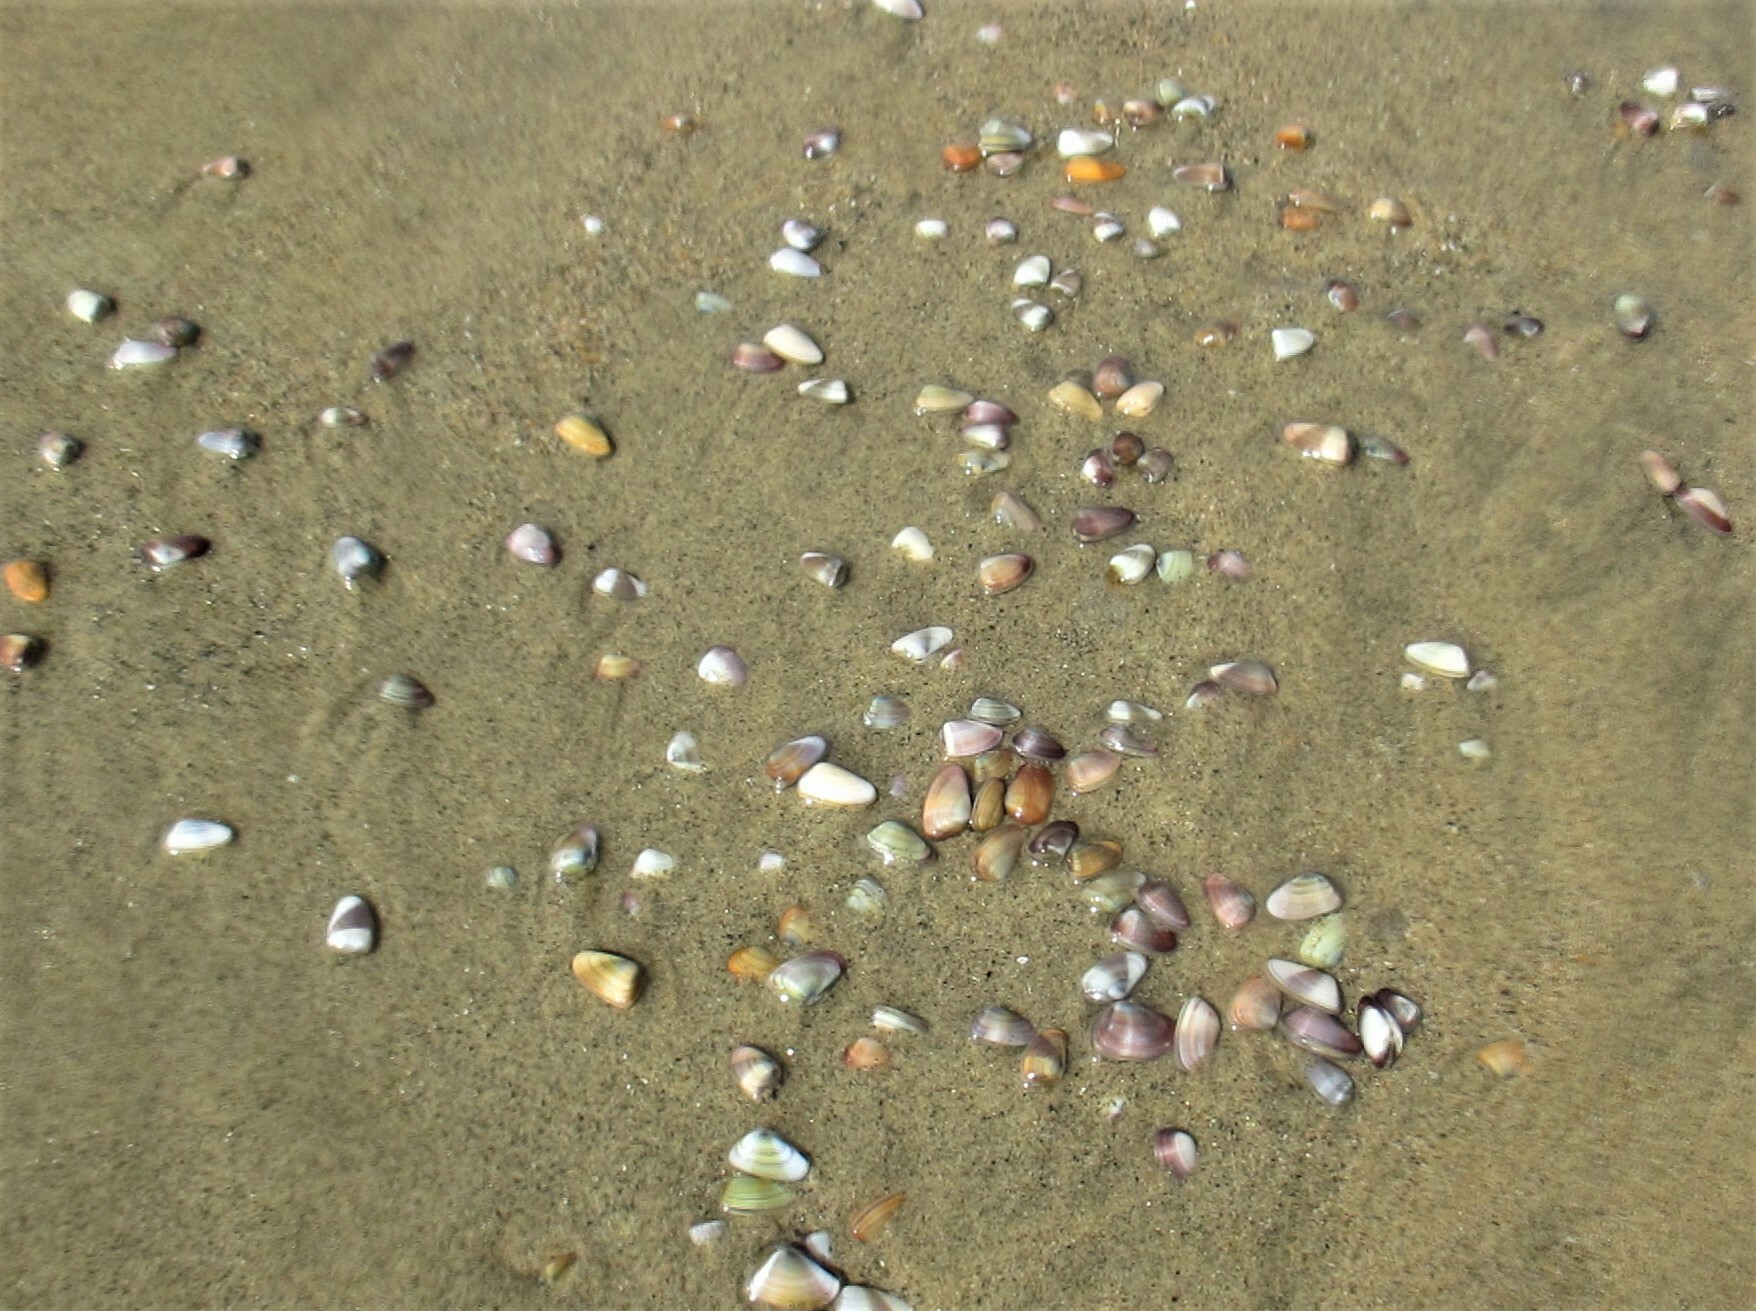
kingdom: Animalia
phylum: Mollusca
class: Bivalvia
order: Cardiida
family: Donacidae
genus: Donax
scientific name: Donax gouldii
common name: Gould beanclam
